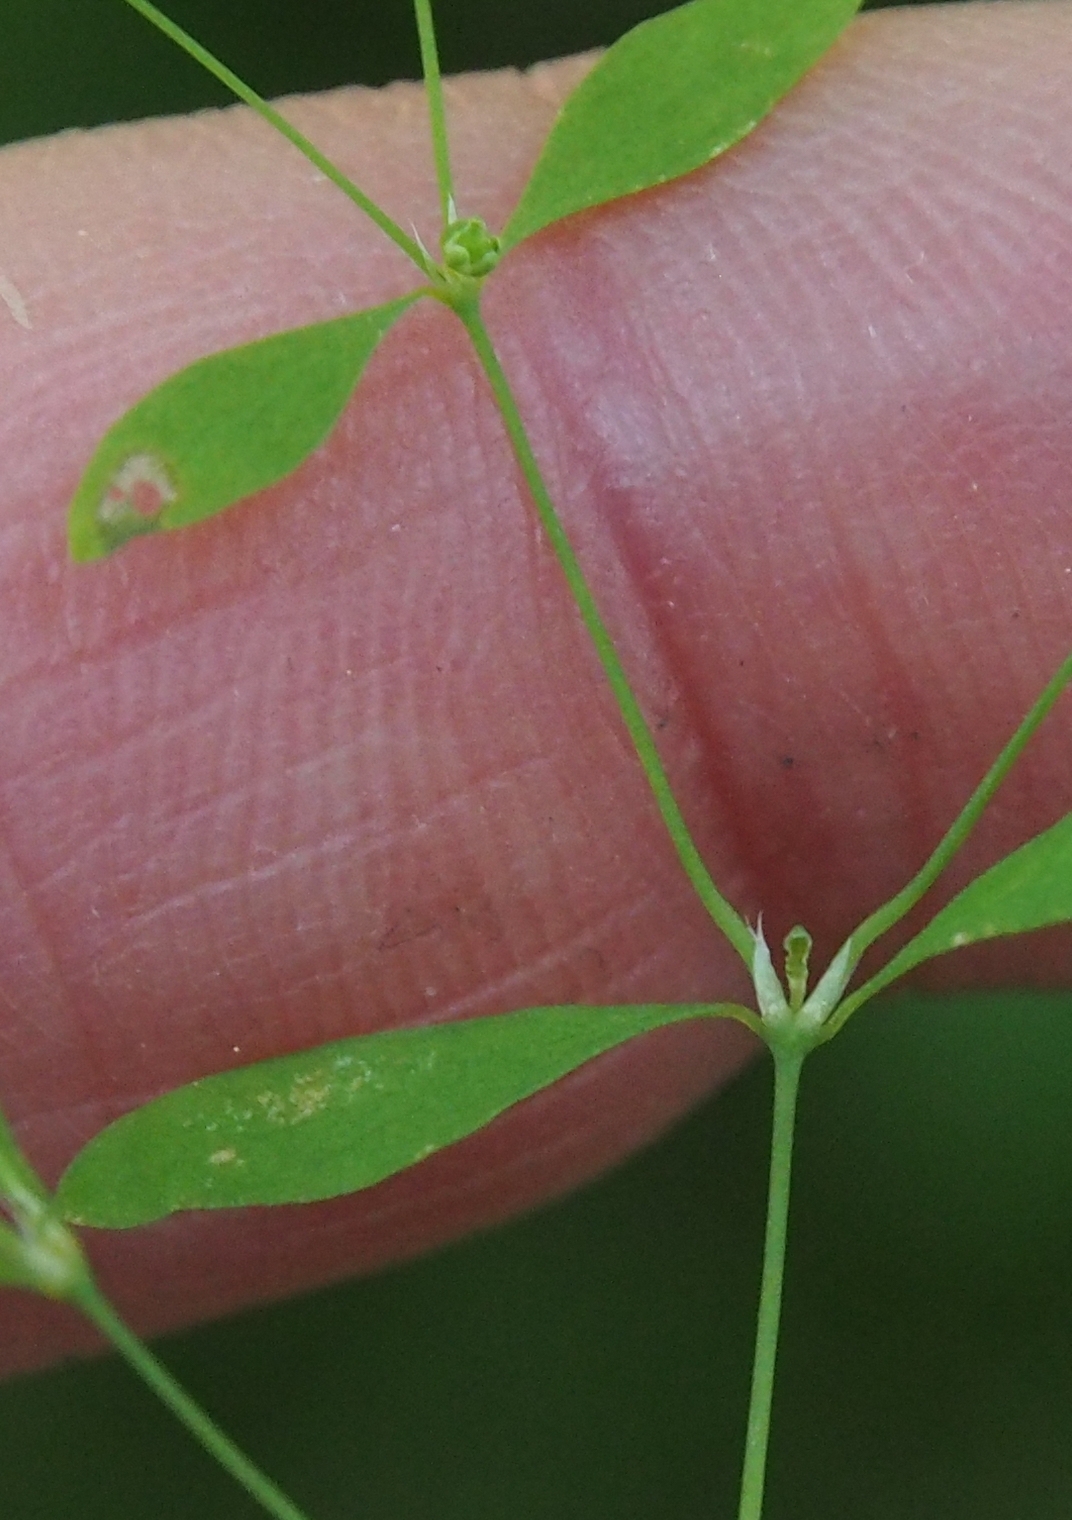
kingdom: Plantae
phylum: Tracheophyta
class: Magnoliopsida
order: Caryophyllales
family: Caryophyllaceae
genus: Paronychia
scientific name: Paronychia canadensis
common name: Canada forked nailwort
